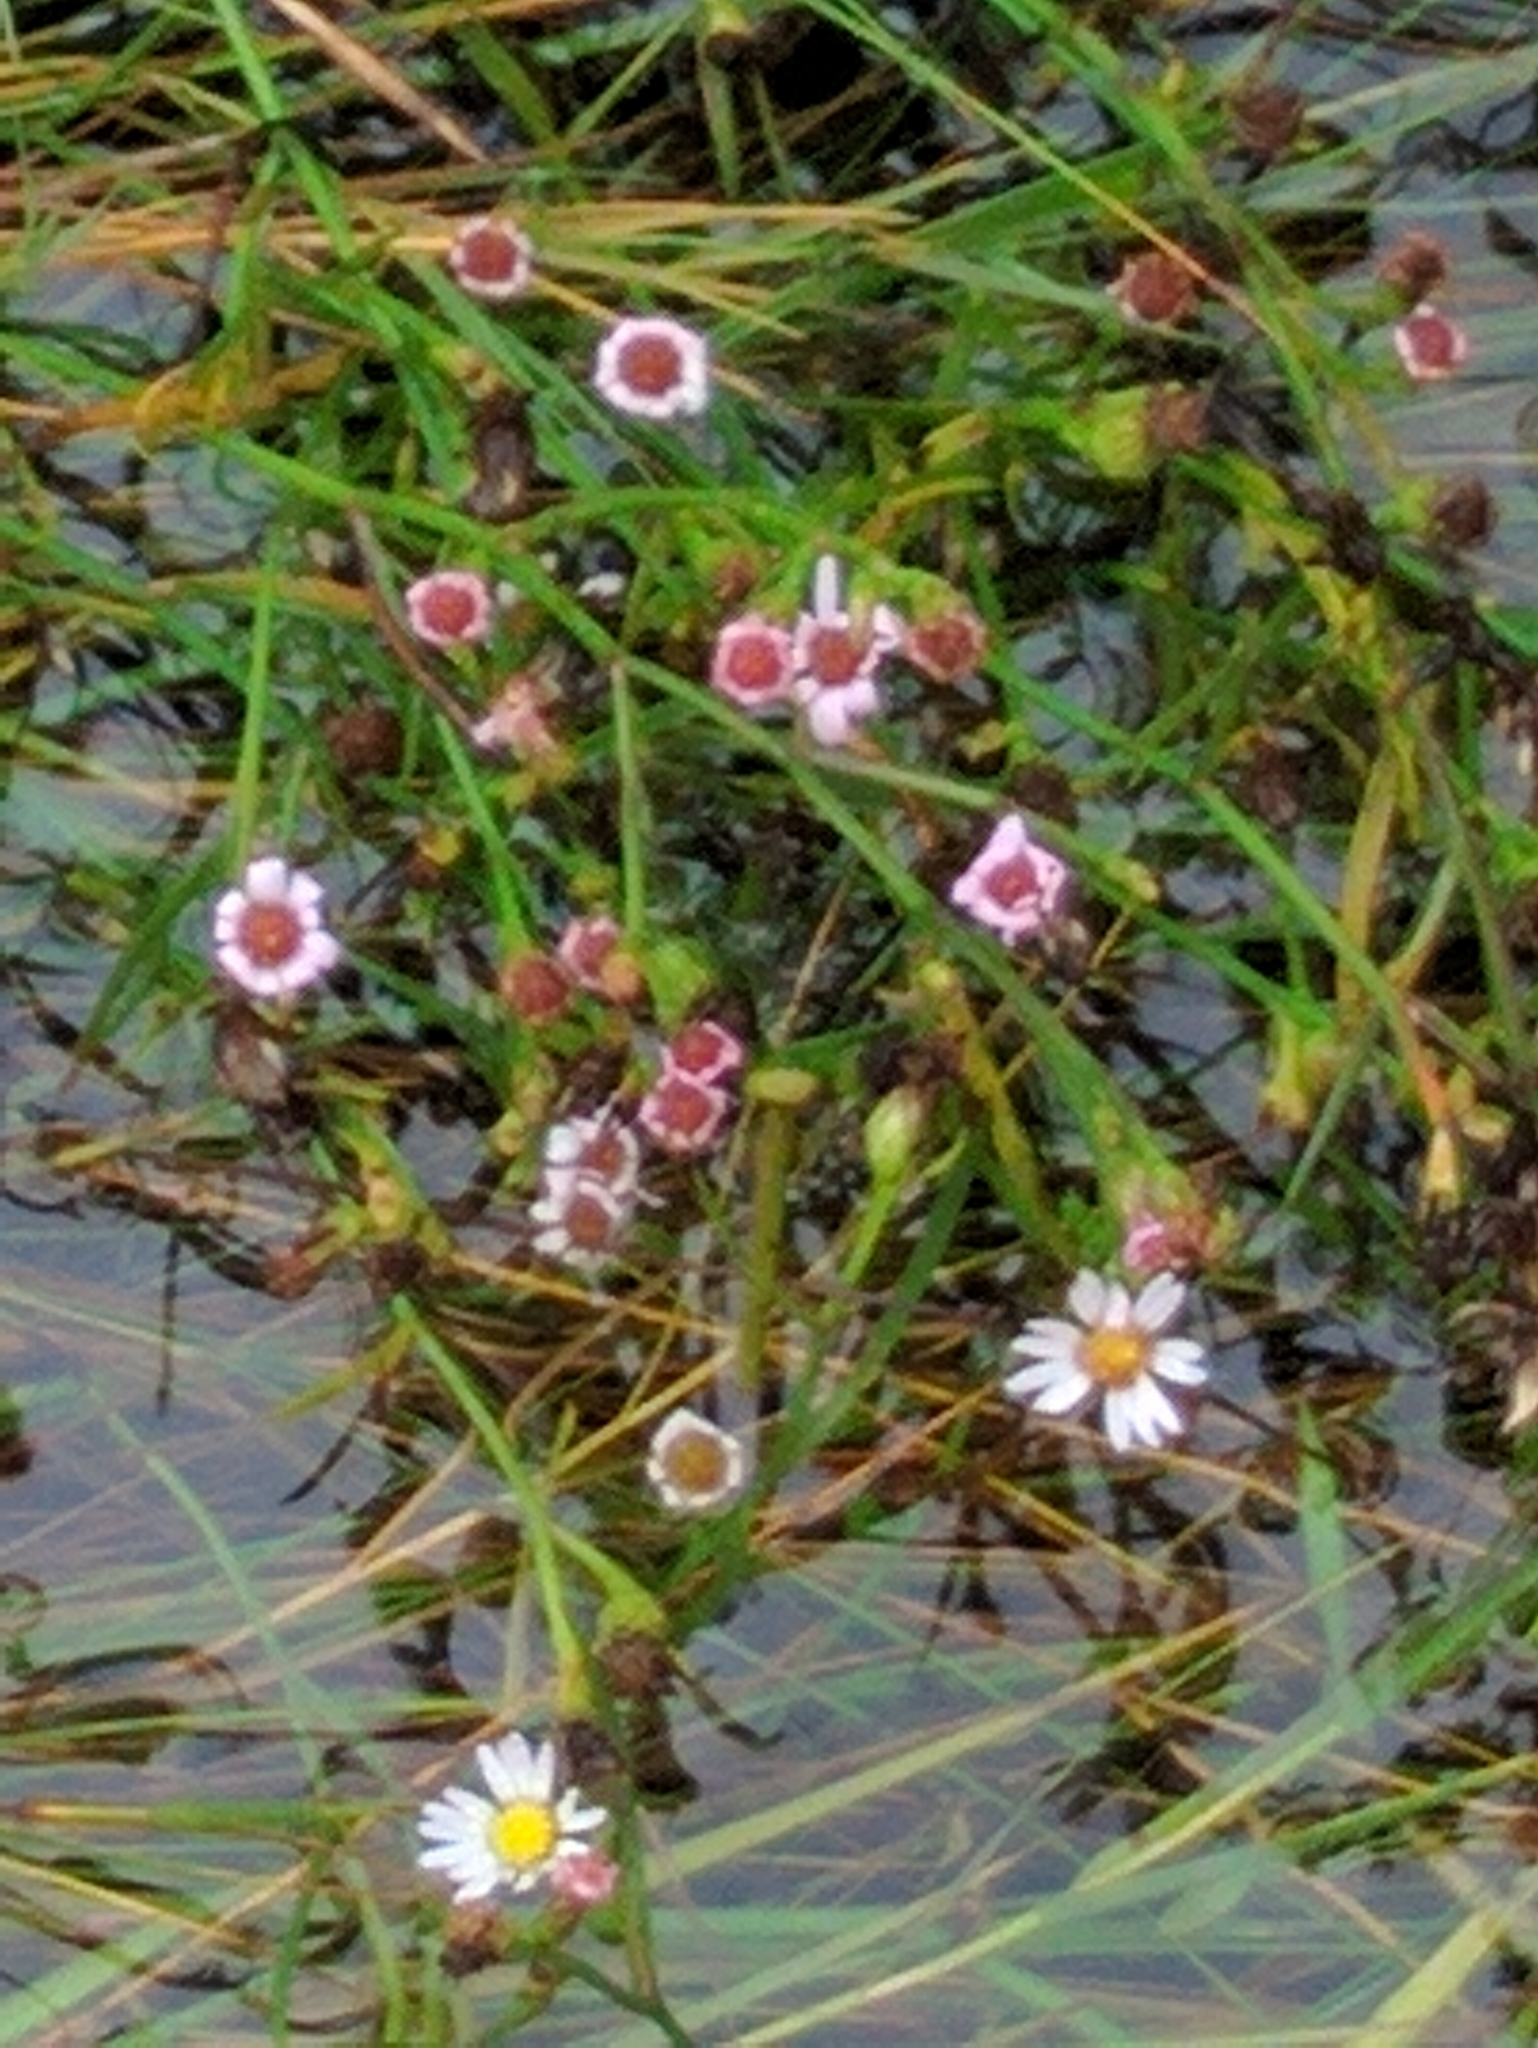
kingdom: Plantae
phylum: Tracheophyta
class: Magnoliopsida
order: Asterales
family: Asteraceae
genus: Symphyotrichum
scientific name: Symphyotrichum tenuifolium
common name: Perennial salt-marsh aster
